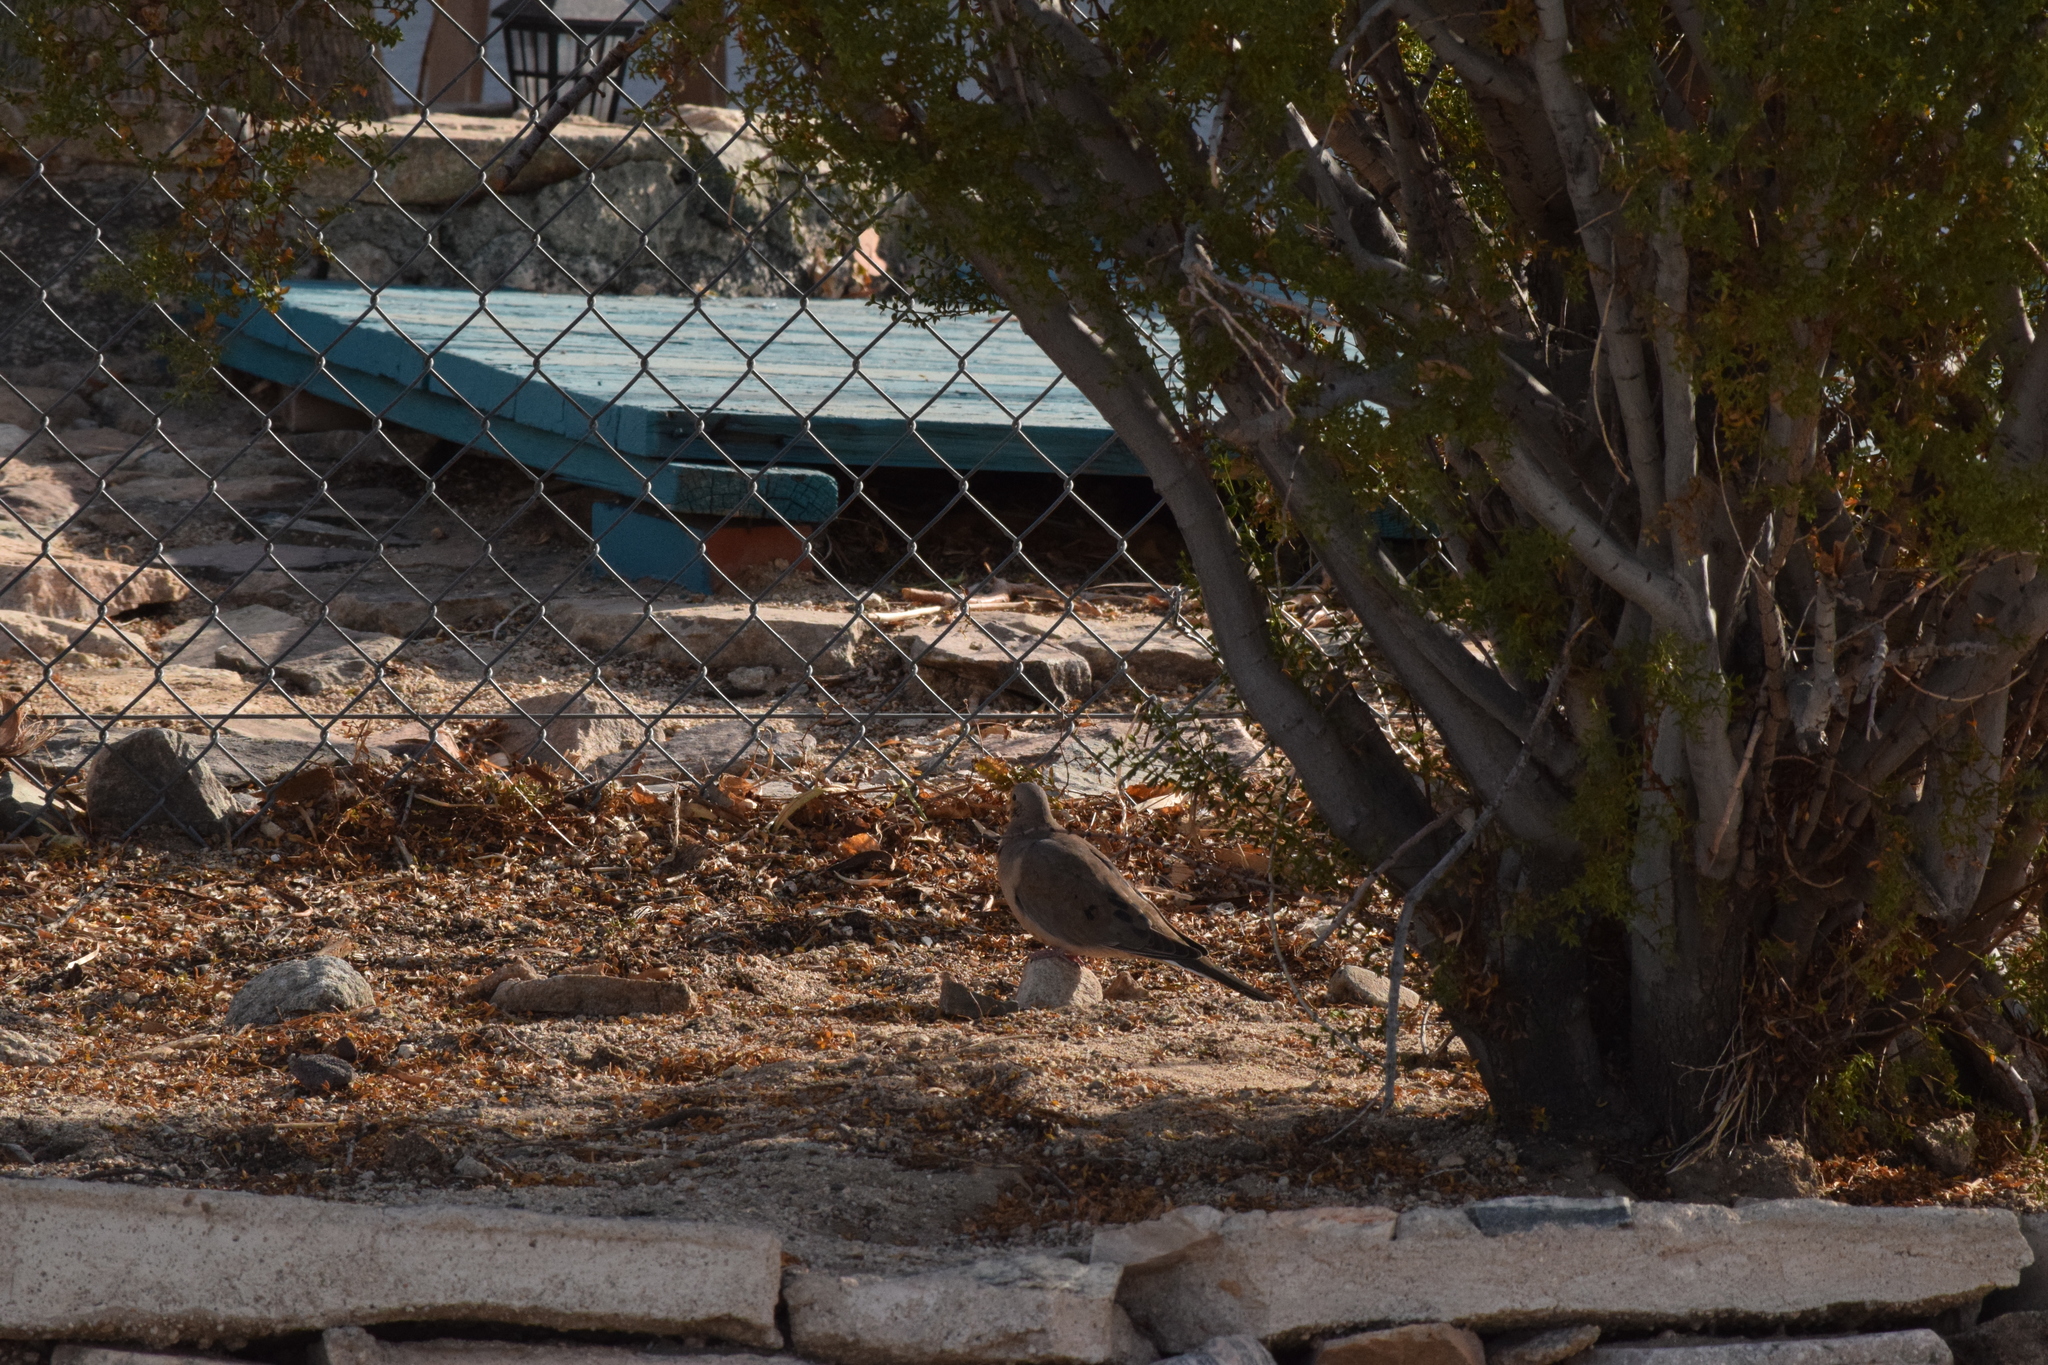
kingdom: Animalia
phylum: Chordata
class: Aves
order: Columbiformes
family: Columbidae
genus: Zenaida
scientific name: Zenaida macroura
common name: Mourning dove
